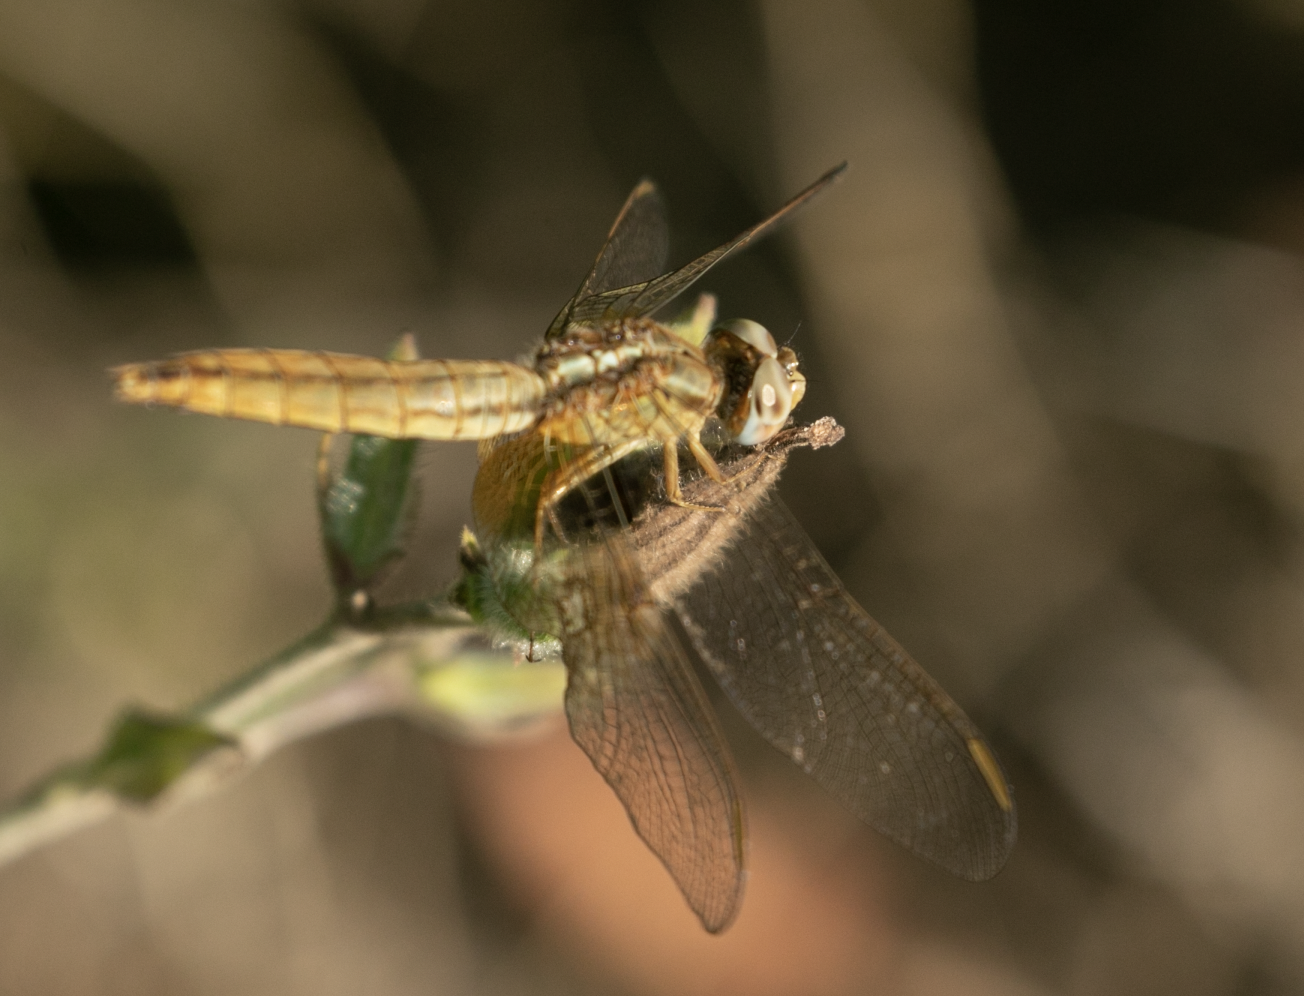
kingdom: Animalia
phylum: Arthropoda
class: Insecta
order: Odonata
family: Libellulidae
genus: Crocothemis
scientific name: Crocothemis erythraea
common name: Scarlet dragonfly
